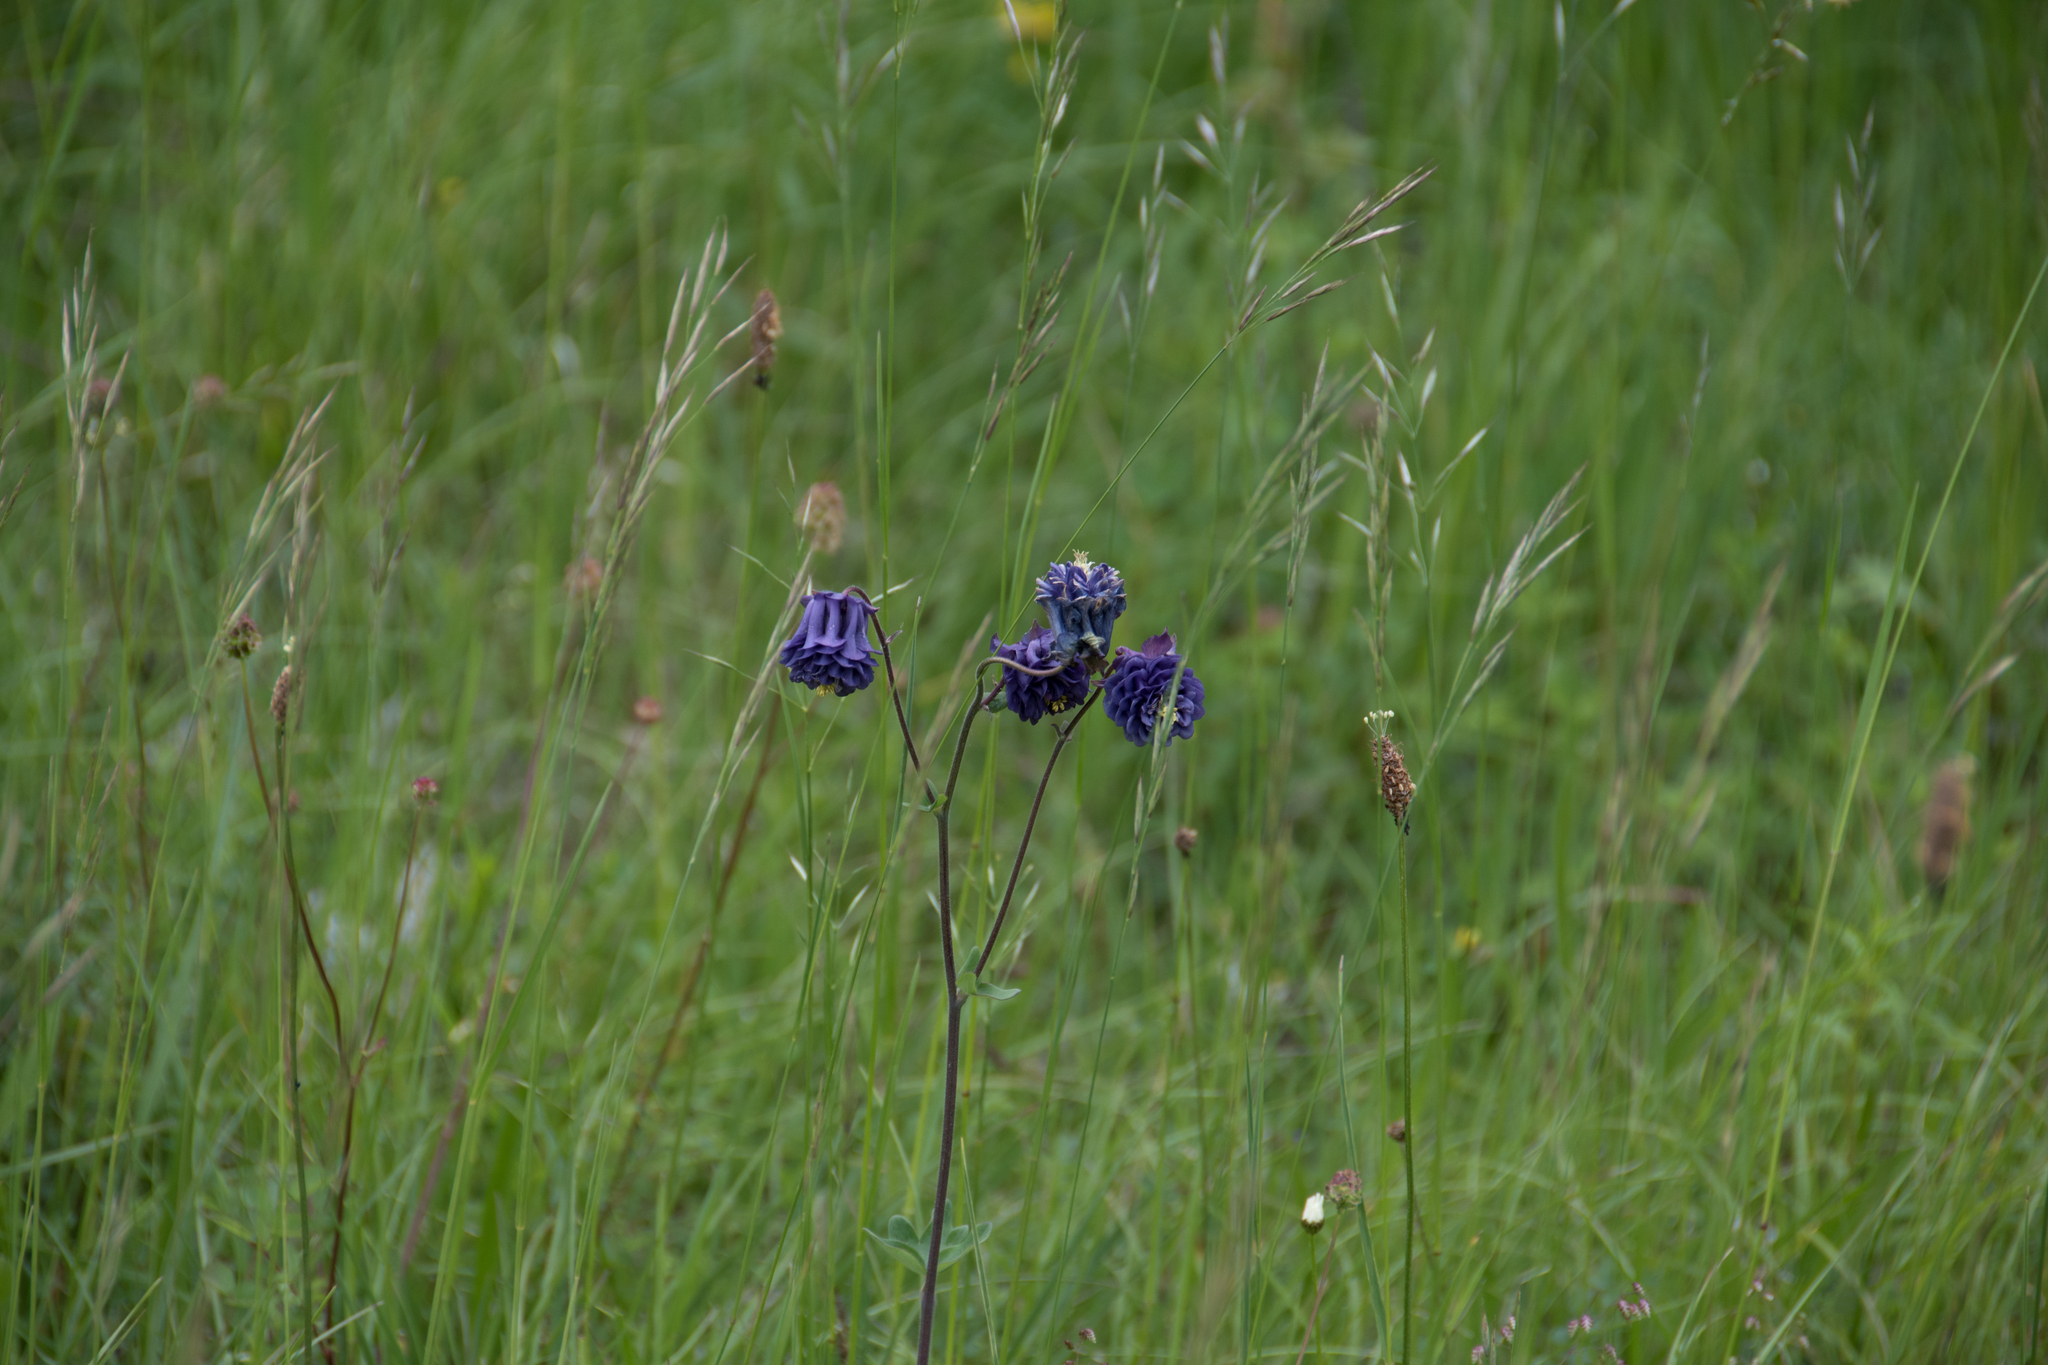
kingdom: Plantae
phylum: Tracheophyta
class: Magnoliopsida
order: Ranunculales
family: Ranunculaceae
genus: Aquilegia
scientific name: Aquilegia vulgaris
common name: Columbine
